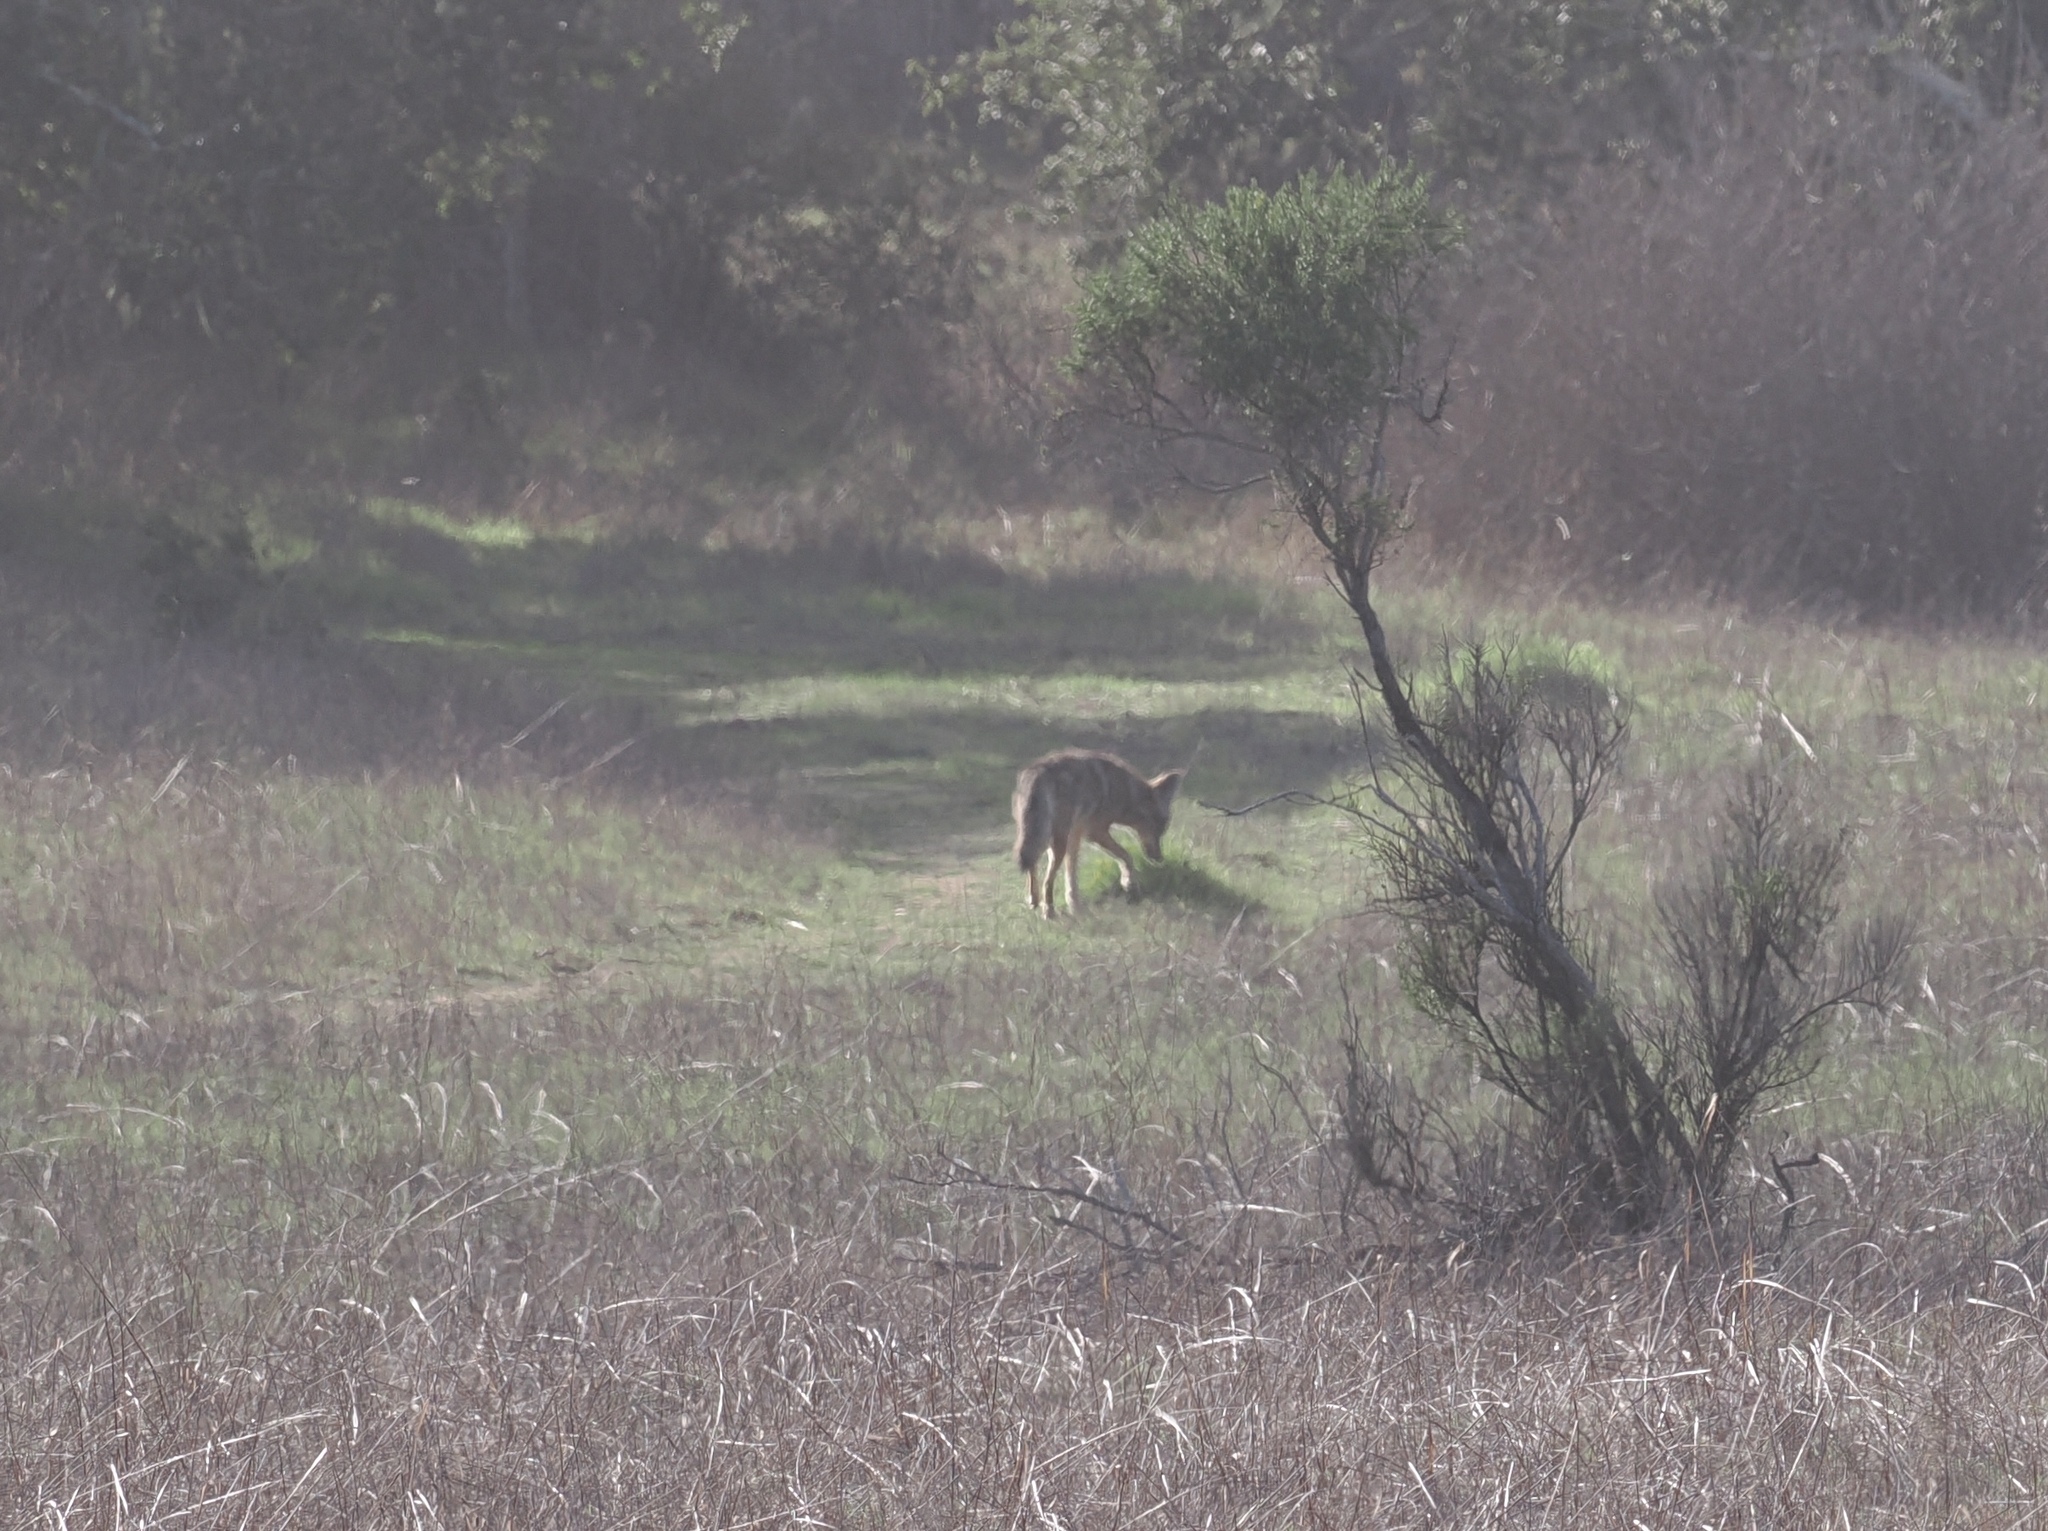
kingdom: Animalia
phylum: Chordata
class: Mammalia
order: Carnivora
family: Canidae
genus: Canis
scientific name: Canis latrans
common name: Coyote
